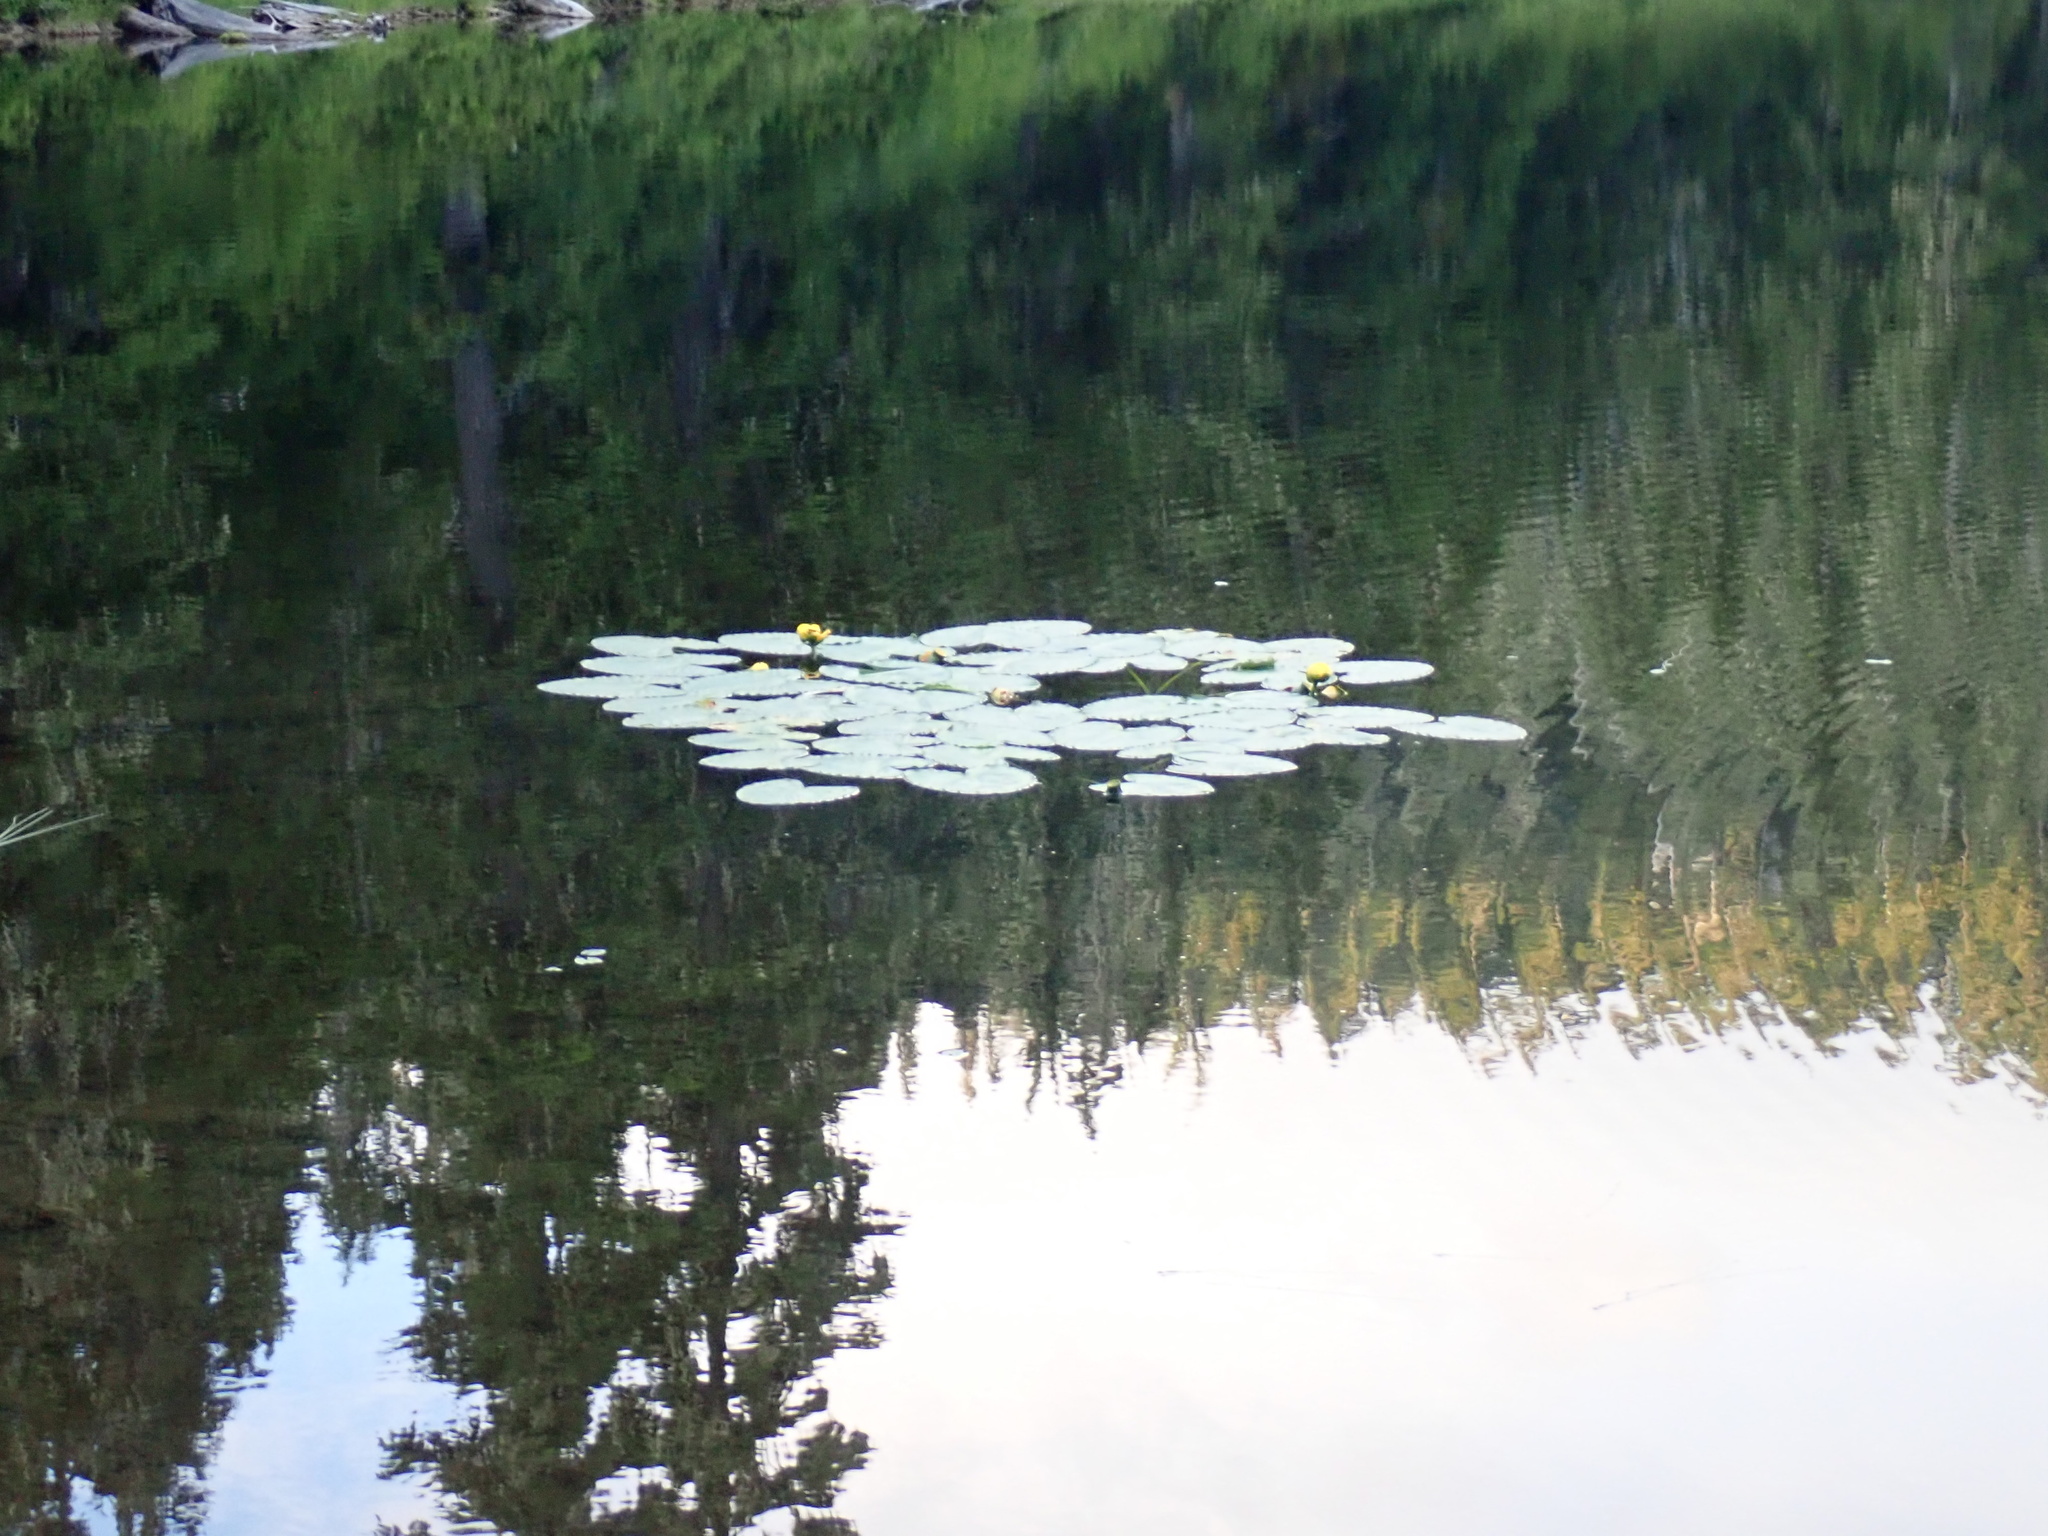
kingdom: Plantae
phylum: Tracheophyta
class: Magnoliopsida
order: Nymphaeales
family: Nymphaeaceae
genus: Nuphar
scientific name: Nuphar polysepala
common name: Rocky mountain cow-lily
